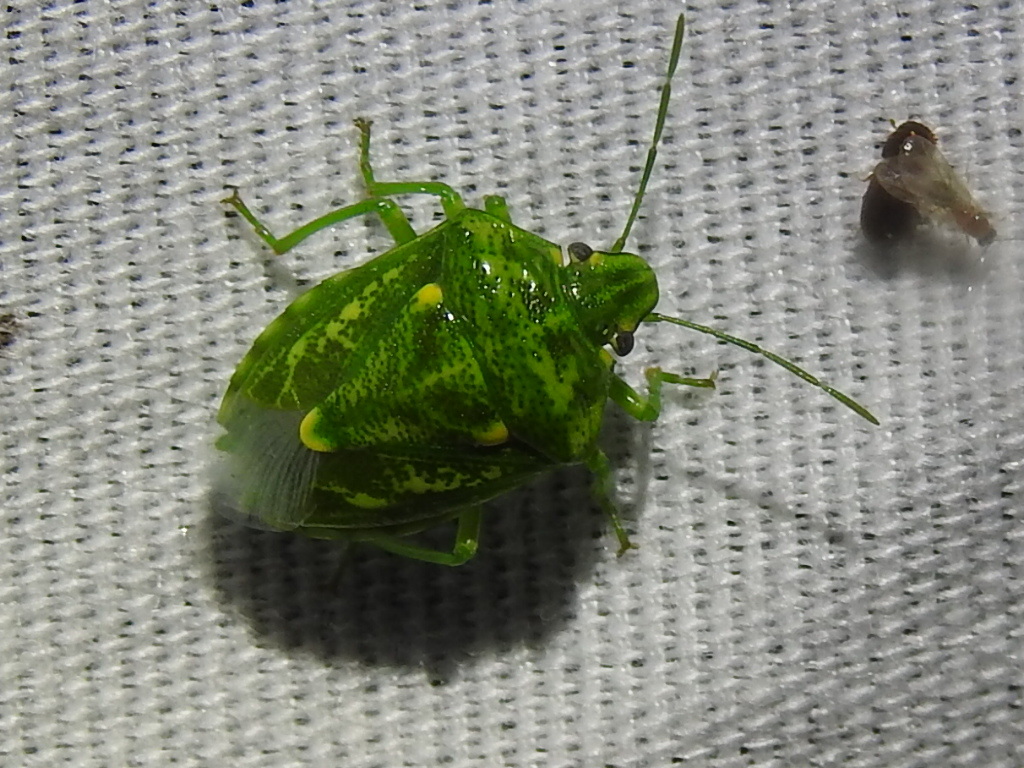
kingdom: Animalia
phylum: Arthropoda
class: Insecta
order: Hemiptera
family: Pentatomidae
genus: Banasa
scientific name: Banasa euchlora
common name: Cedar berry bug
